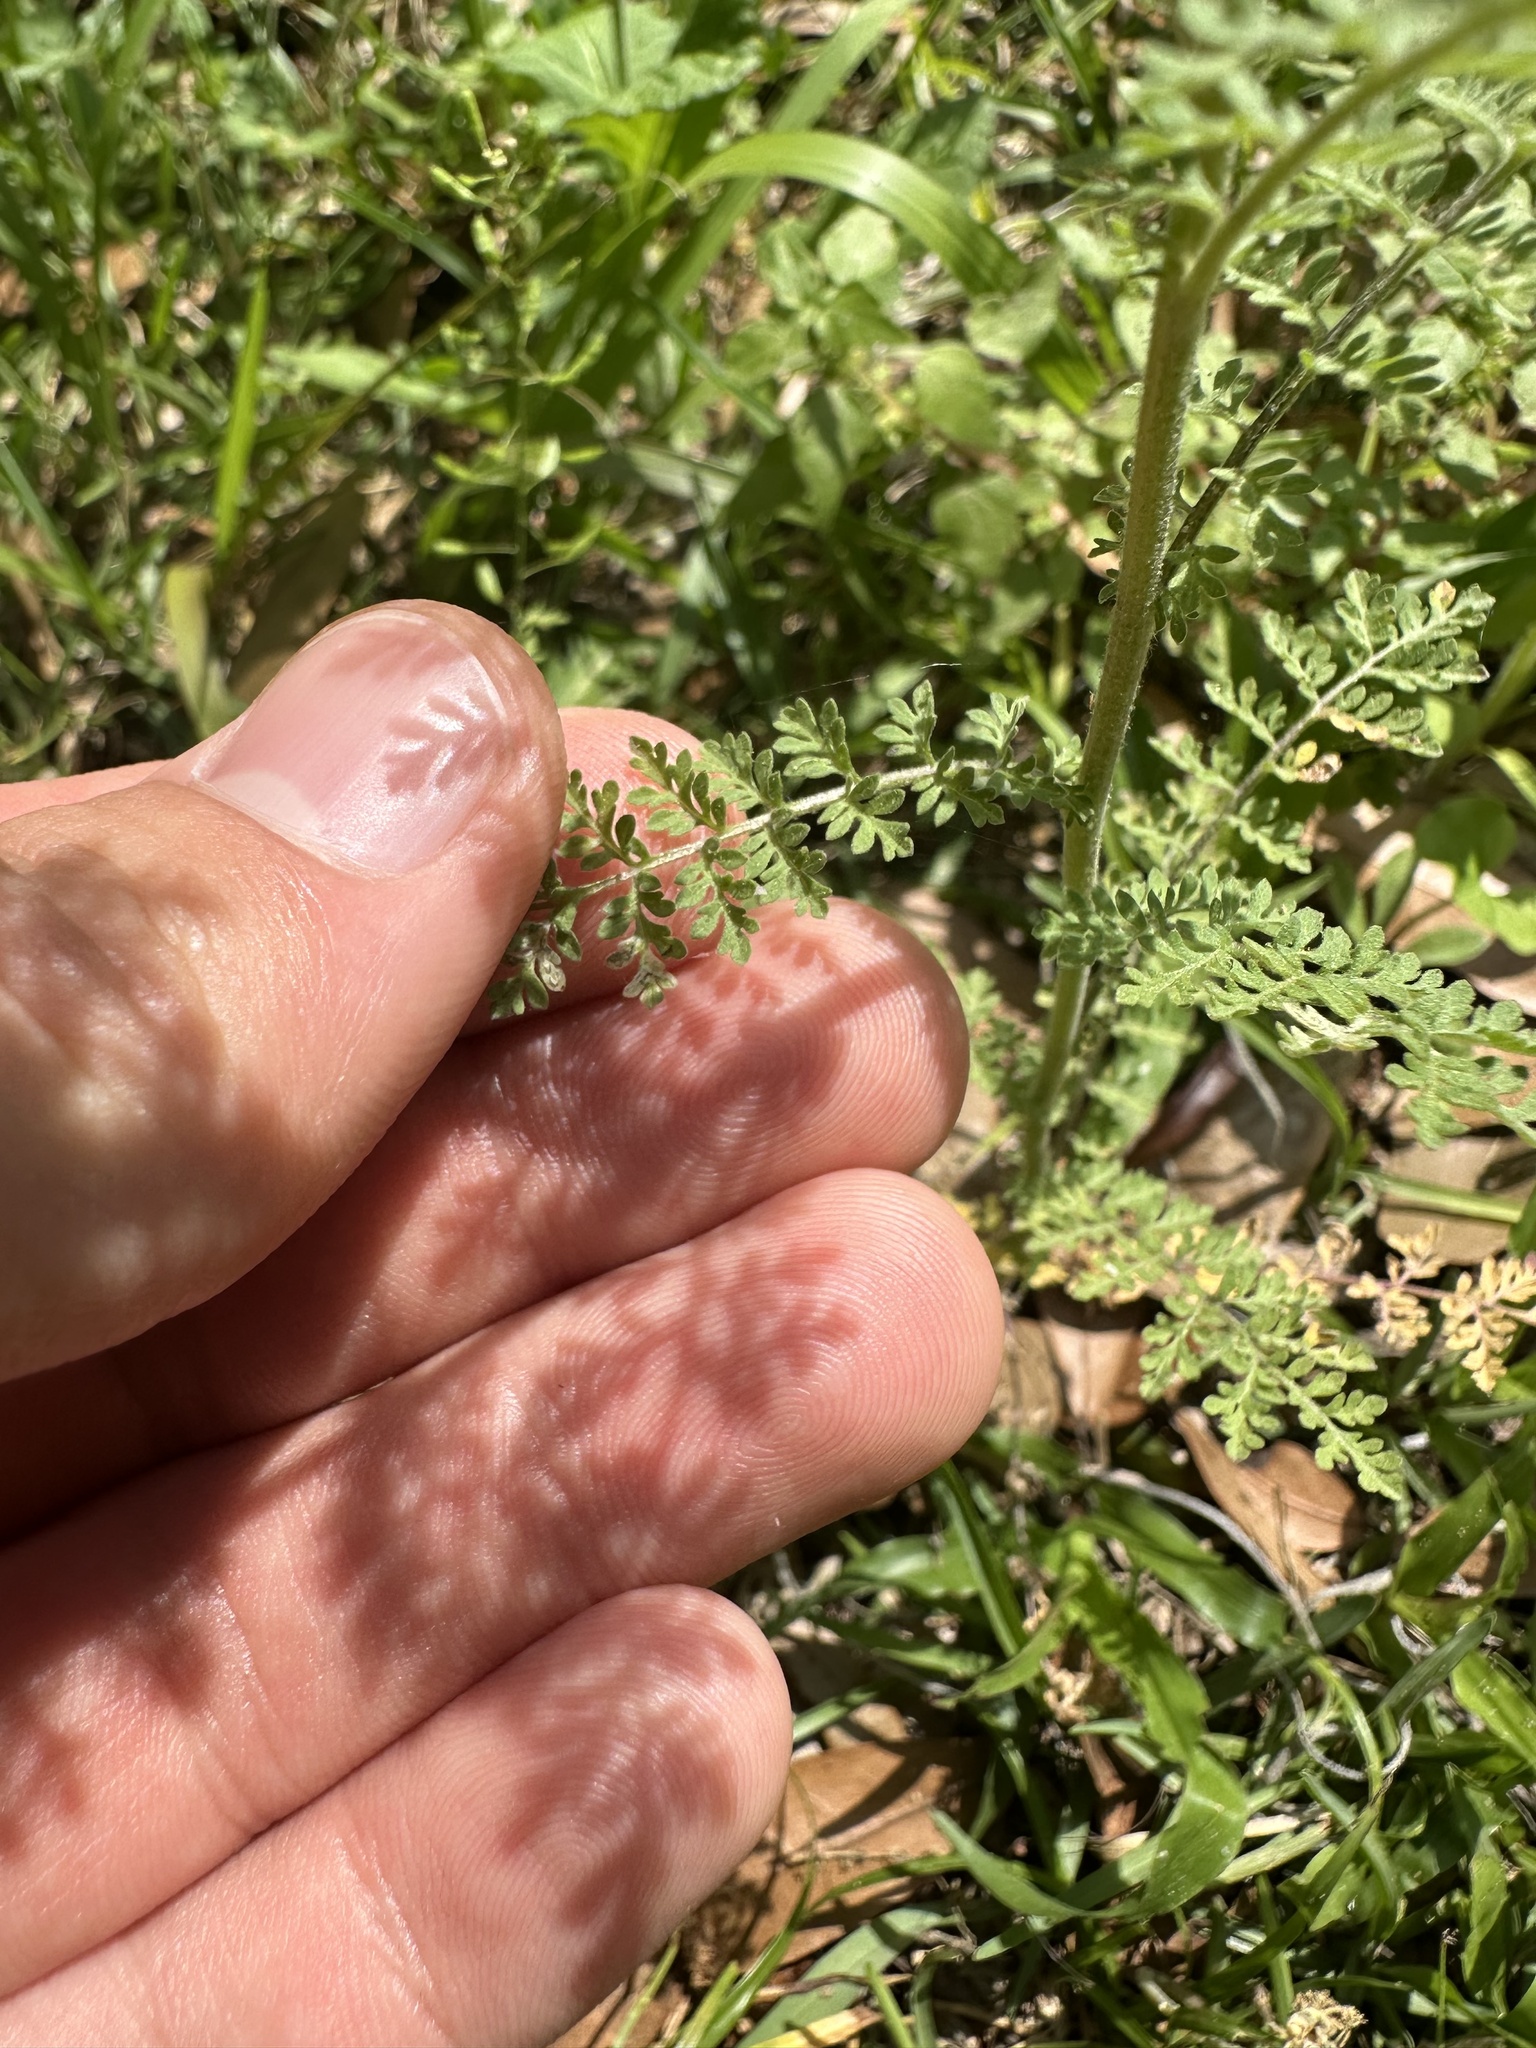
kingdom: Plantae
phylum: Tracheophyta
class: Magnoliopsida
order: Brassicales
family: Brassicaceae
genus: Descurainia
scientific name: Descurainia pinnata
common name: Western tansy mustard
